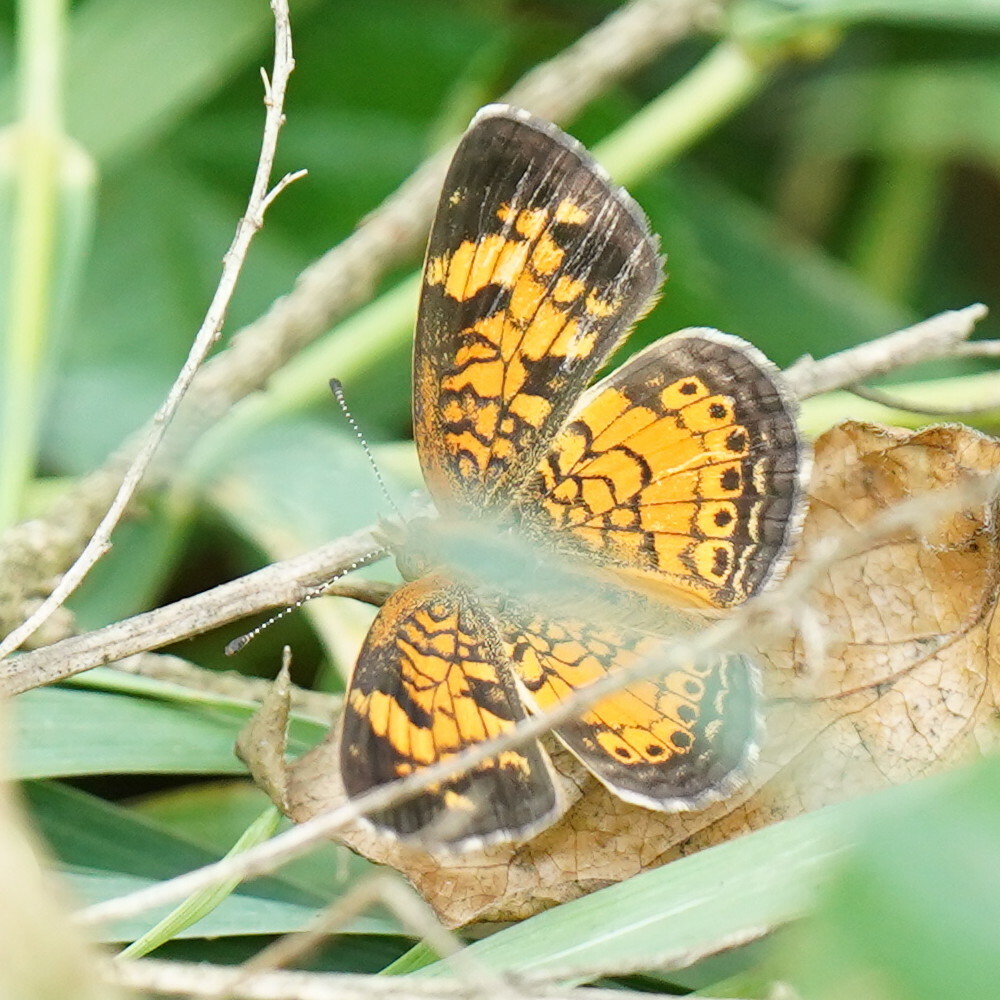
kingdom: Animalia
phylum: Arthropoda
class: Insecta
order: Lepidoptera
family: Nymphalidae
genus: Phyciodes
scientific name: Phyciodes tharos
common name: Pearl crescent
